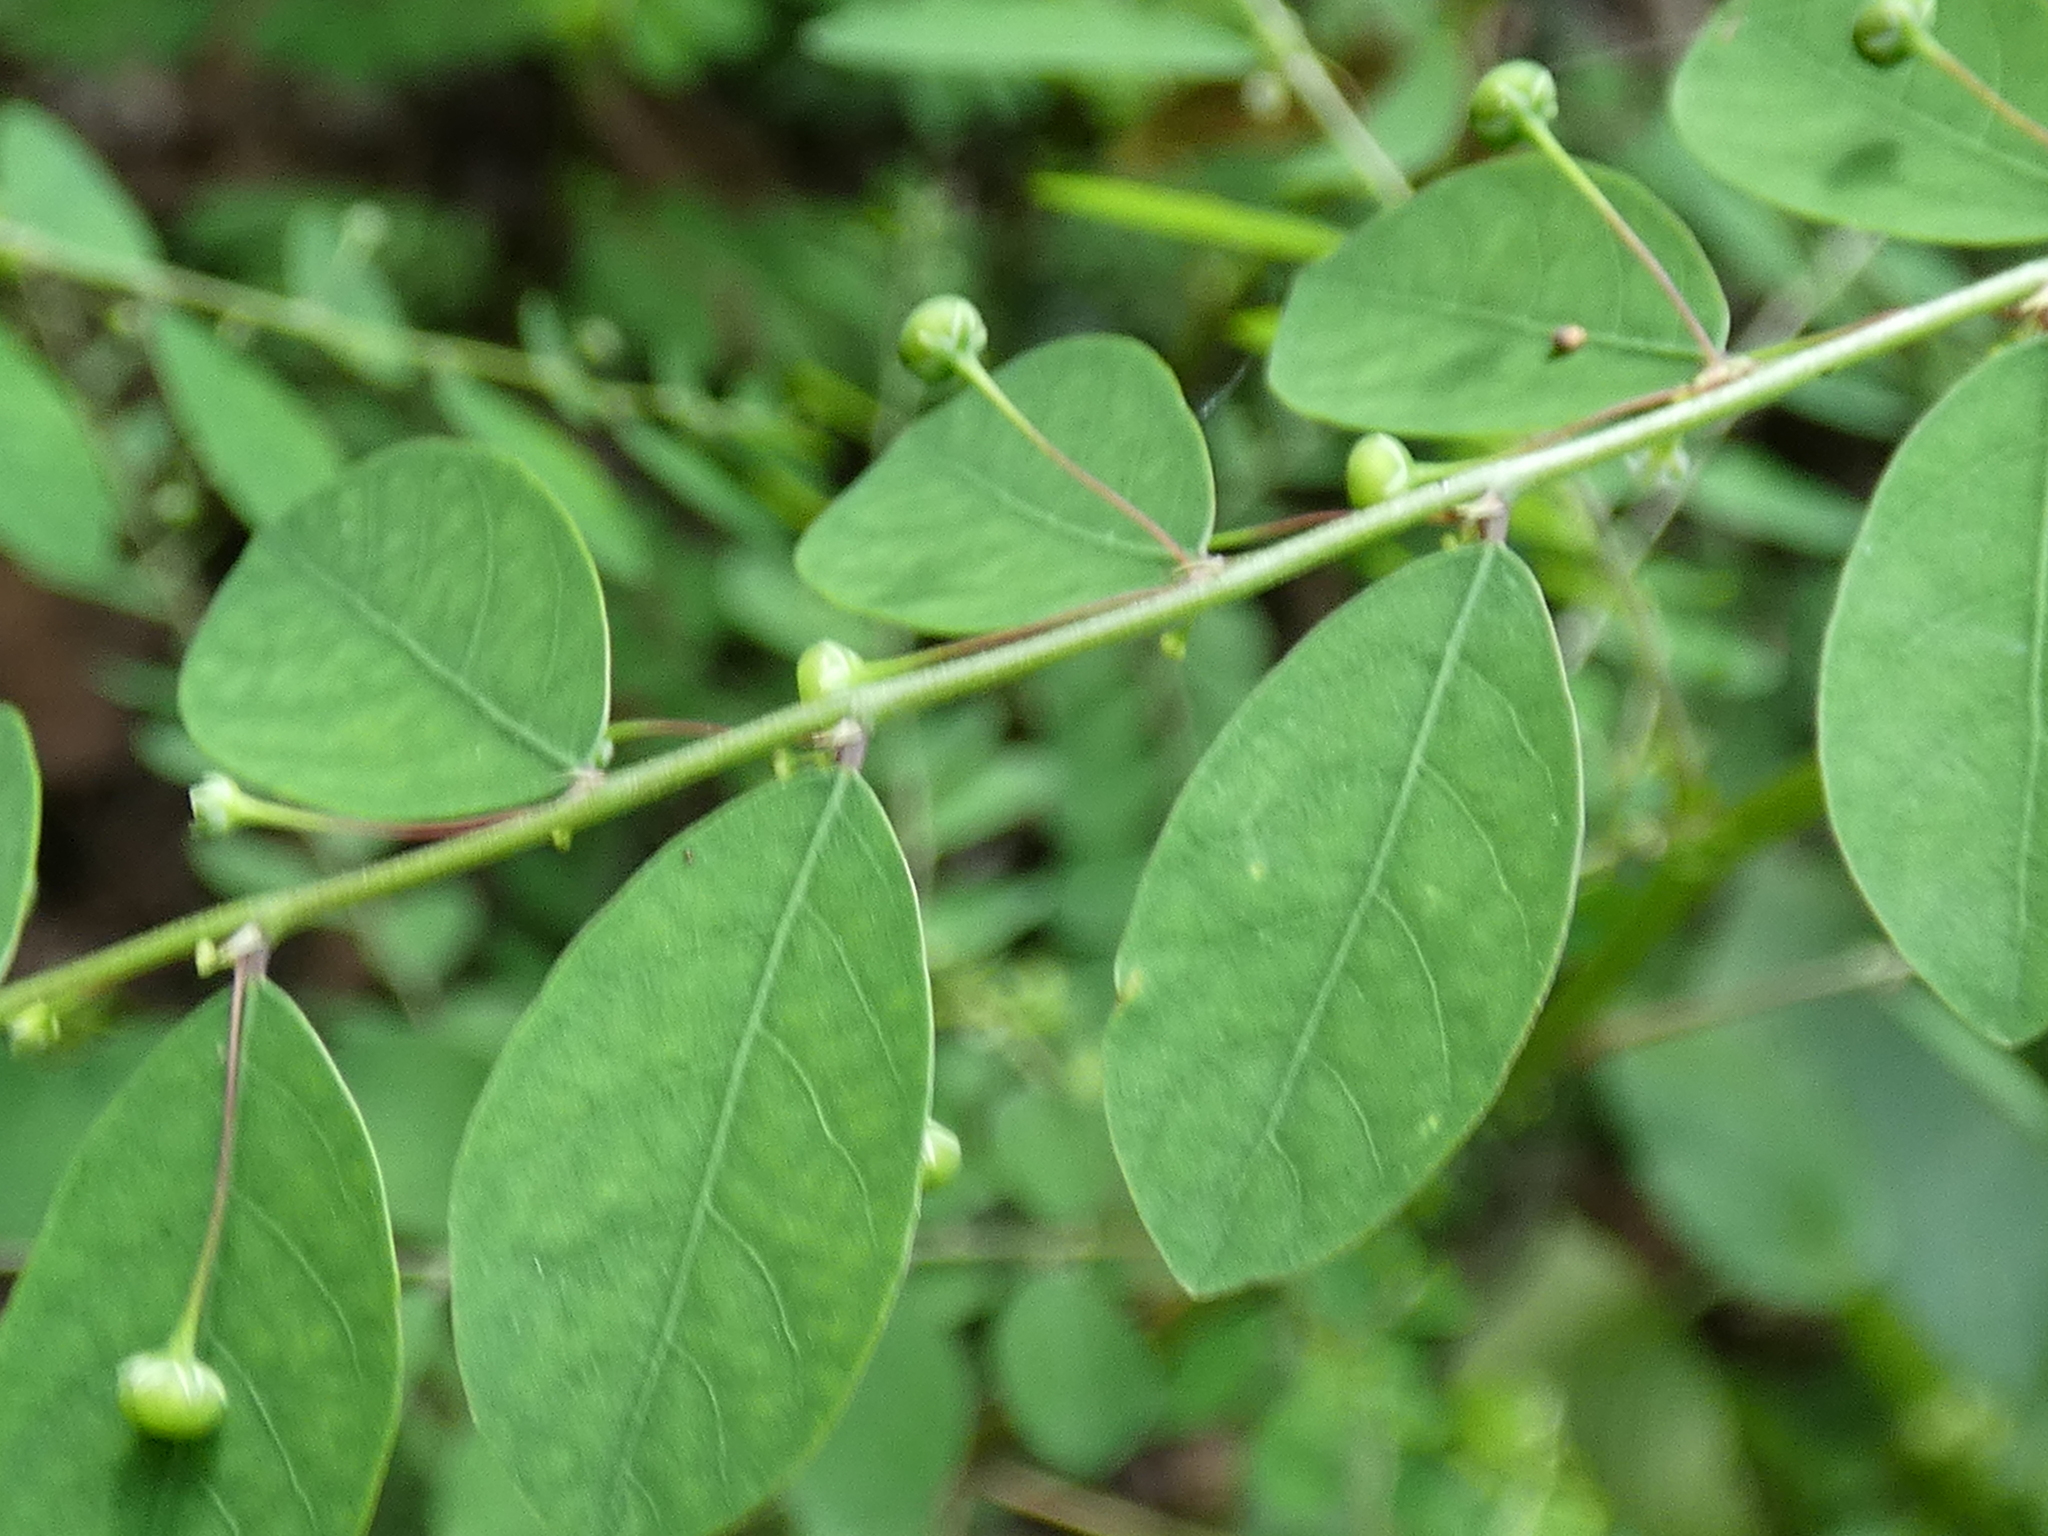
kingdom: Plantae
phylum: Tracheophyta
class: Magnoliopsida
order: Malpighiales
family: Phyllanthaceae
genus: Phyllanthus
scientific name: Phyllanthus tenellus
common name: Mascarene island leaf-flower
